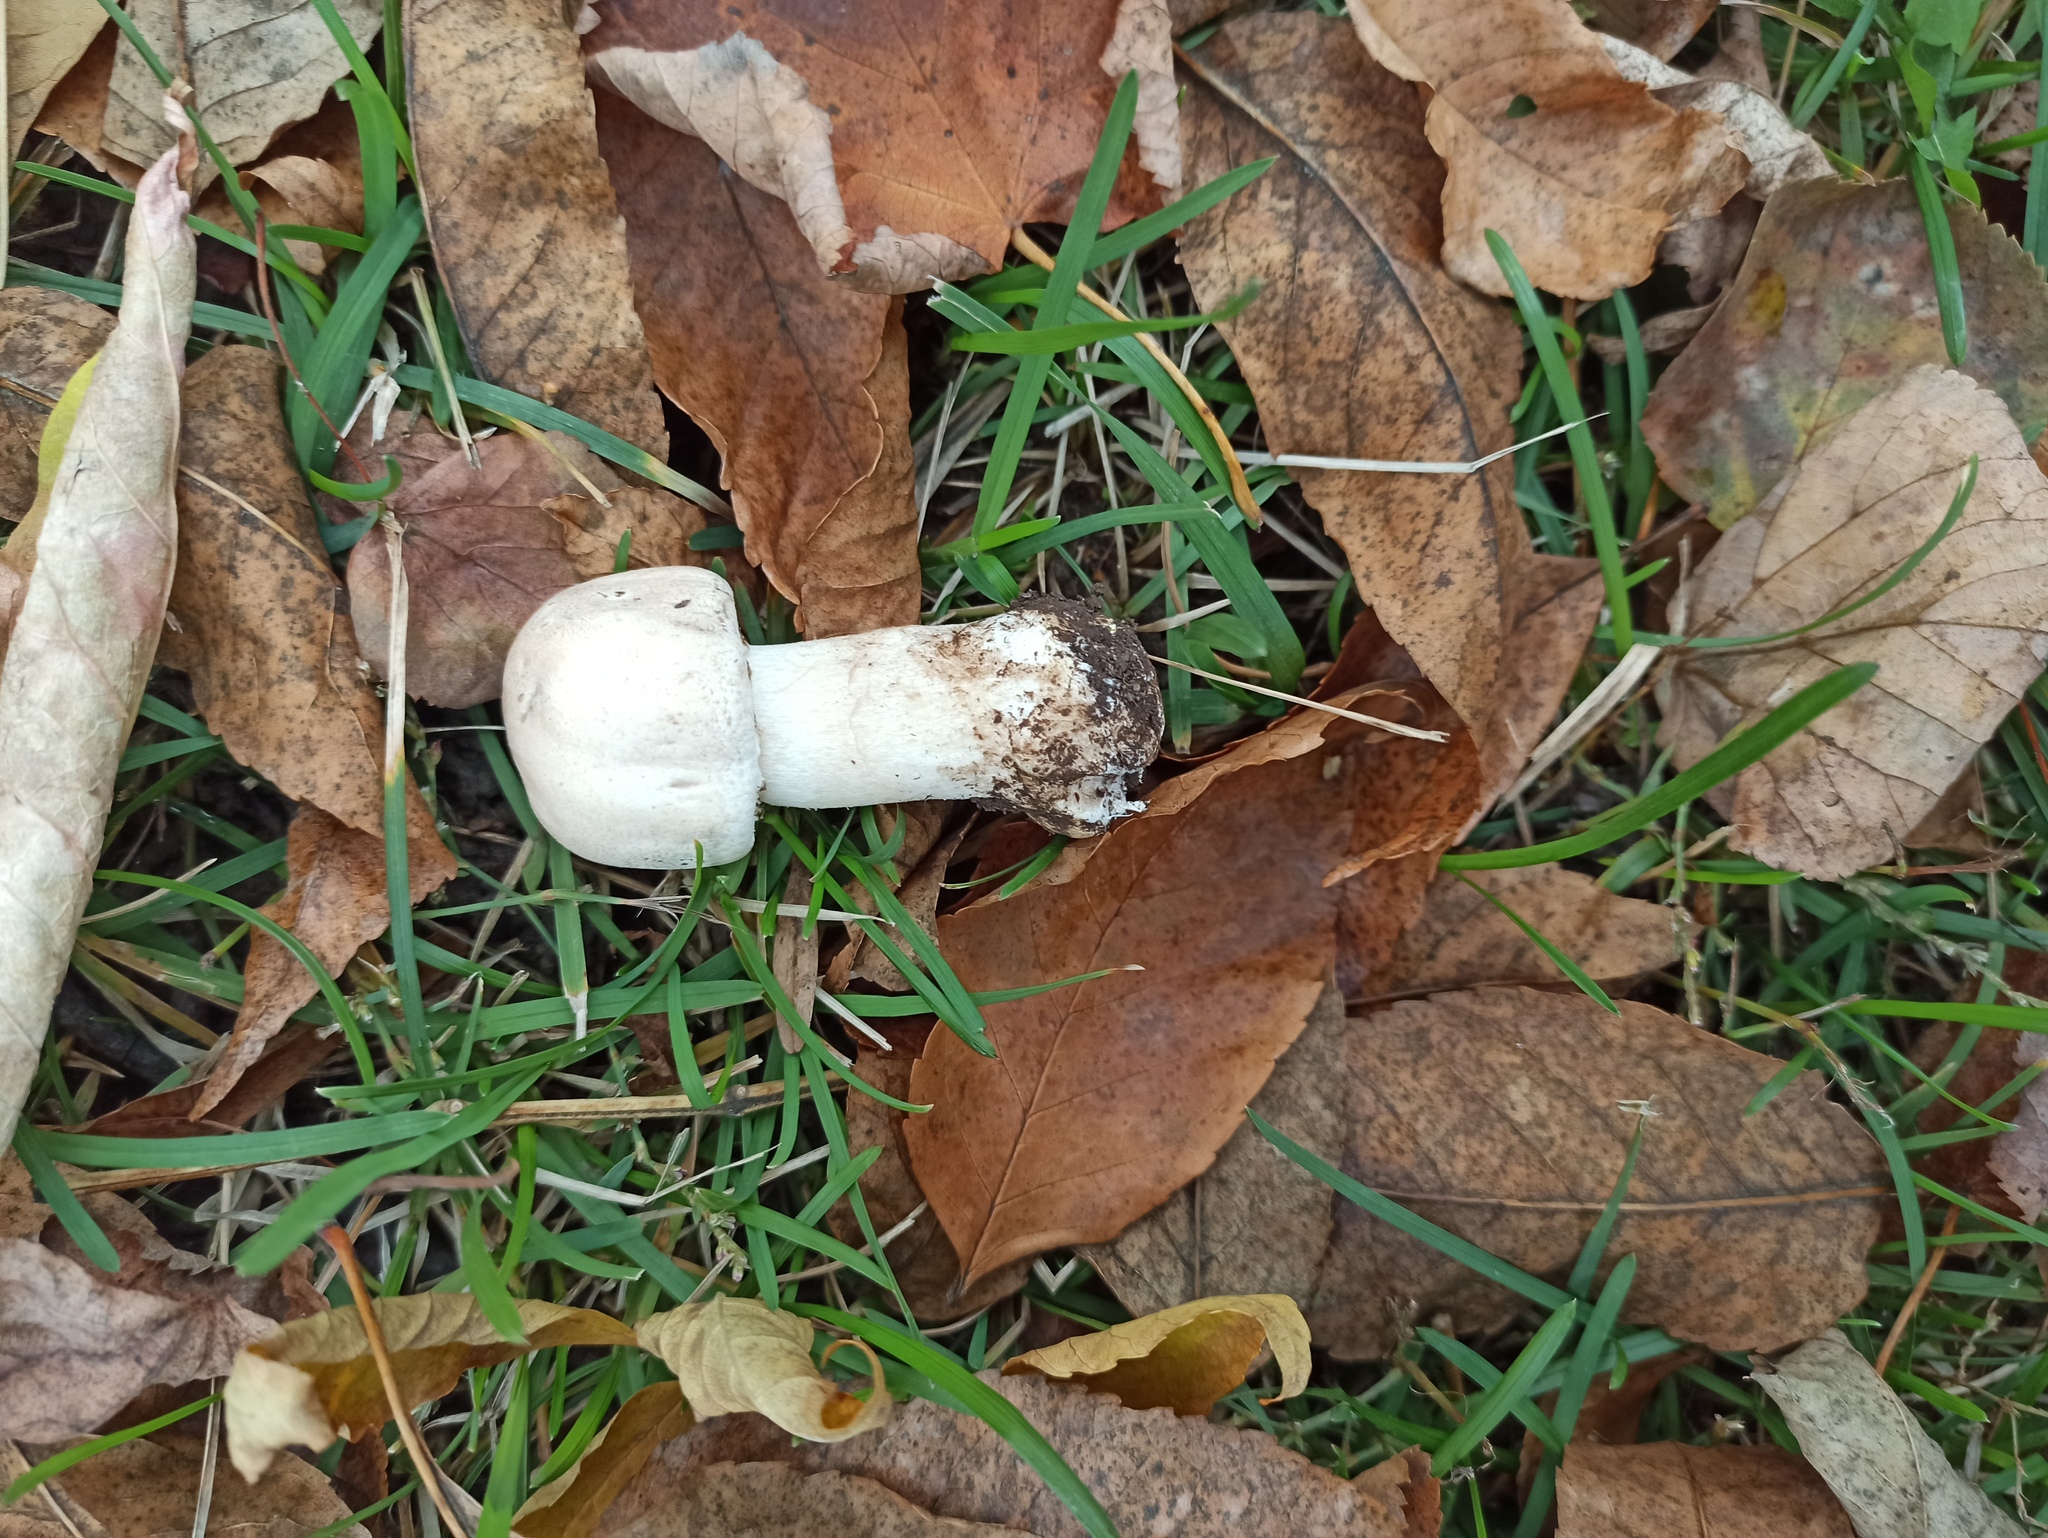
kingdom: Fungi
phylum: Basidiomycota
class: Agaricomycetes
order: Agaricales
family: Agaricaceae
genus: Agaricus
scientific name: Agaricus xanthodermus
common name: Yellow stainer
